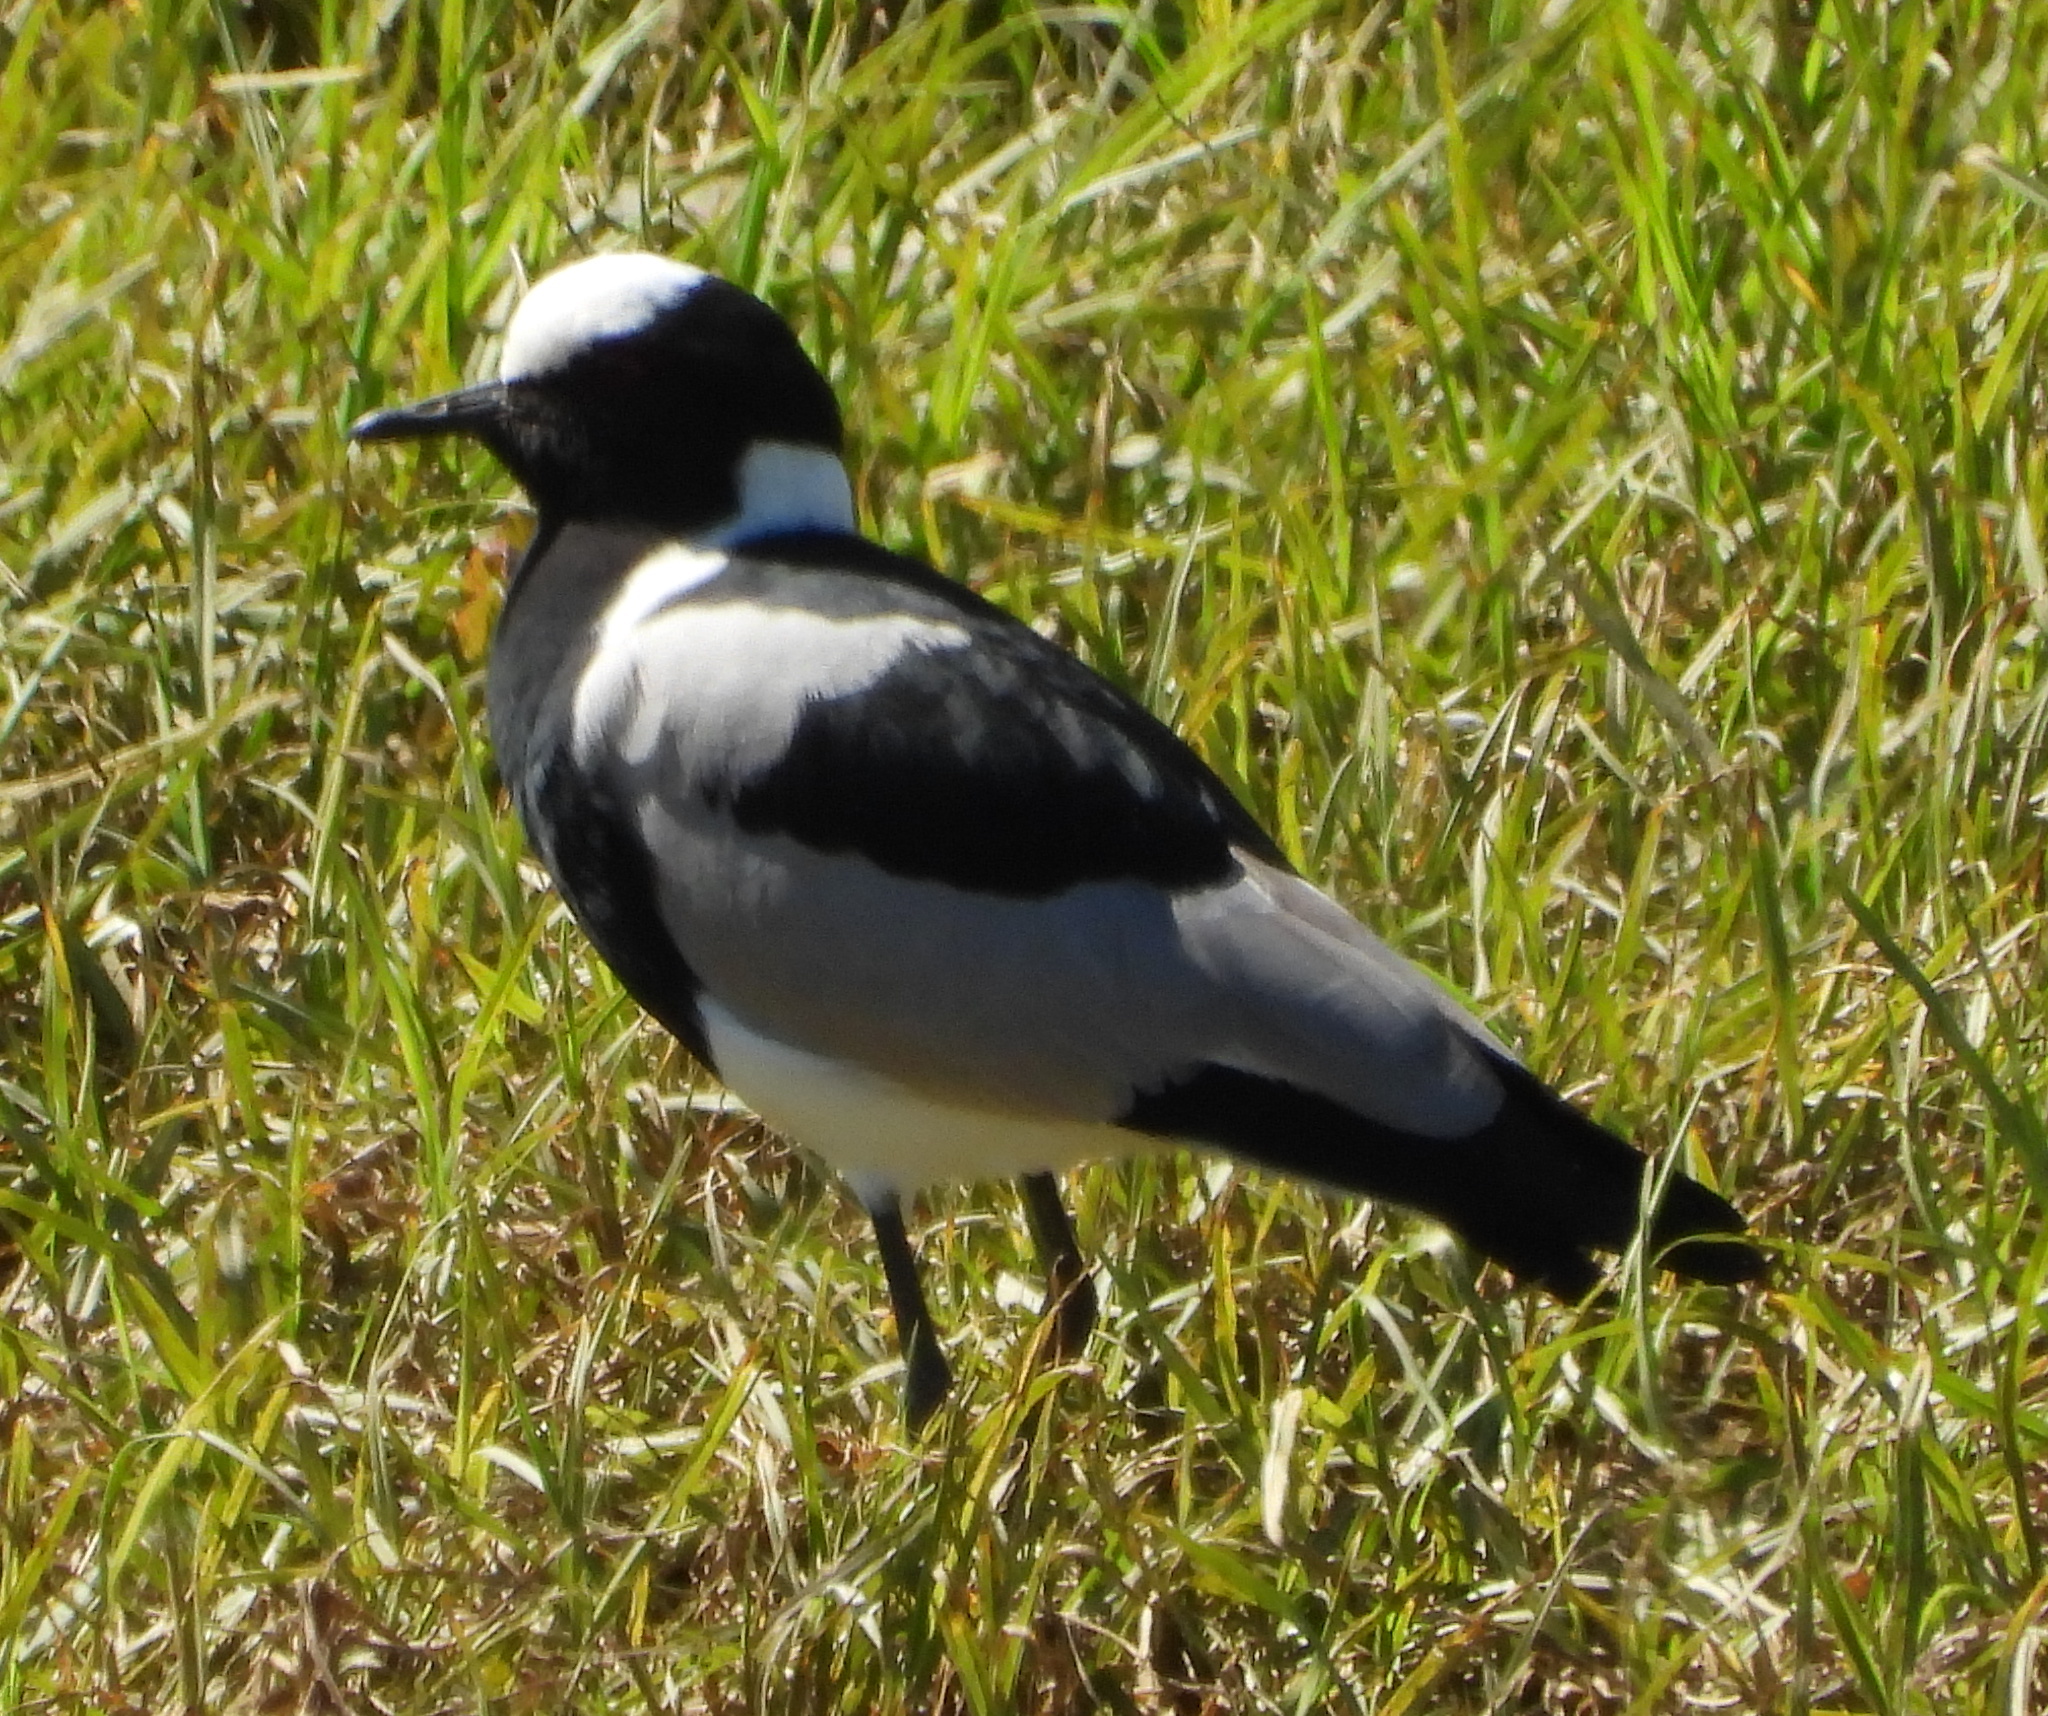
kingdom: Animalia
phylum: Chordata
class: Aves
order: Charadriiformes
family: Charadriidae
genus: Vanellus
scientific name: Vanellus armatus
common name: Blacksmith lapwing
